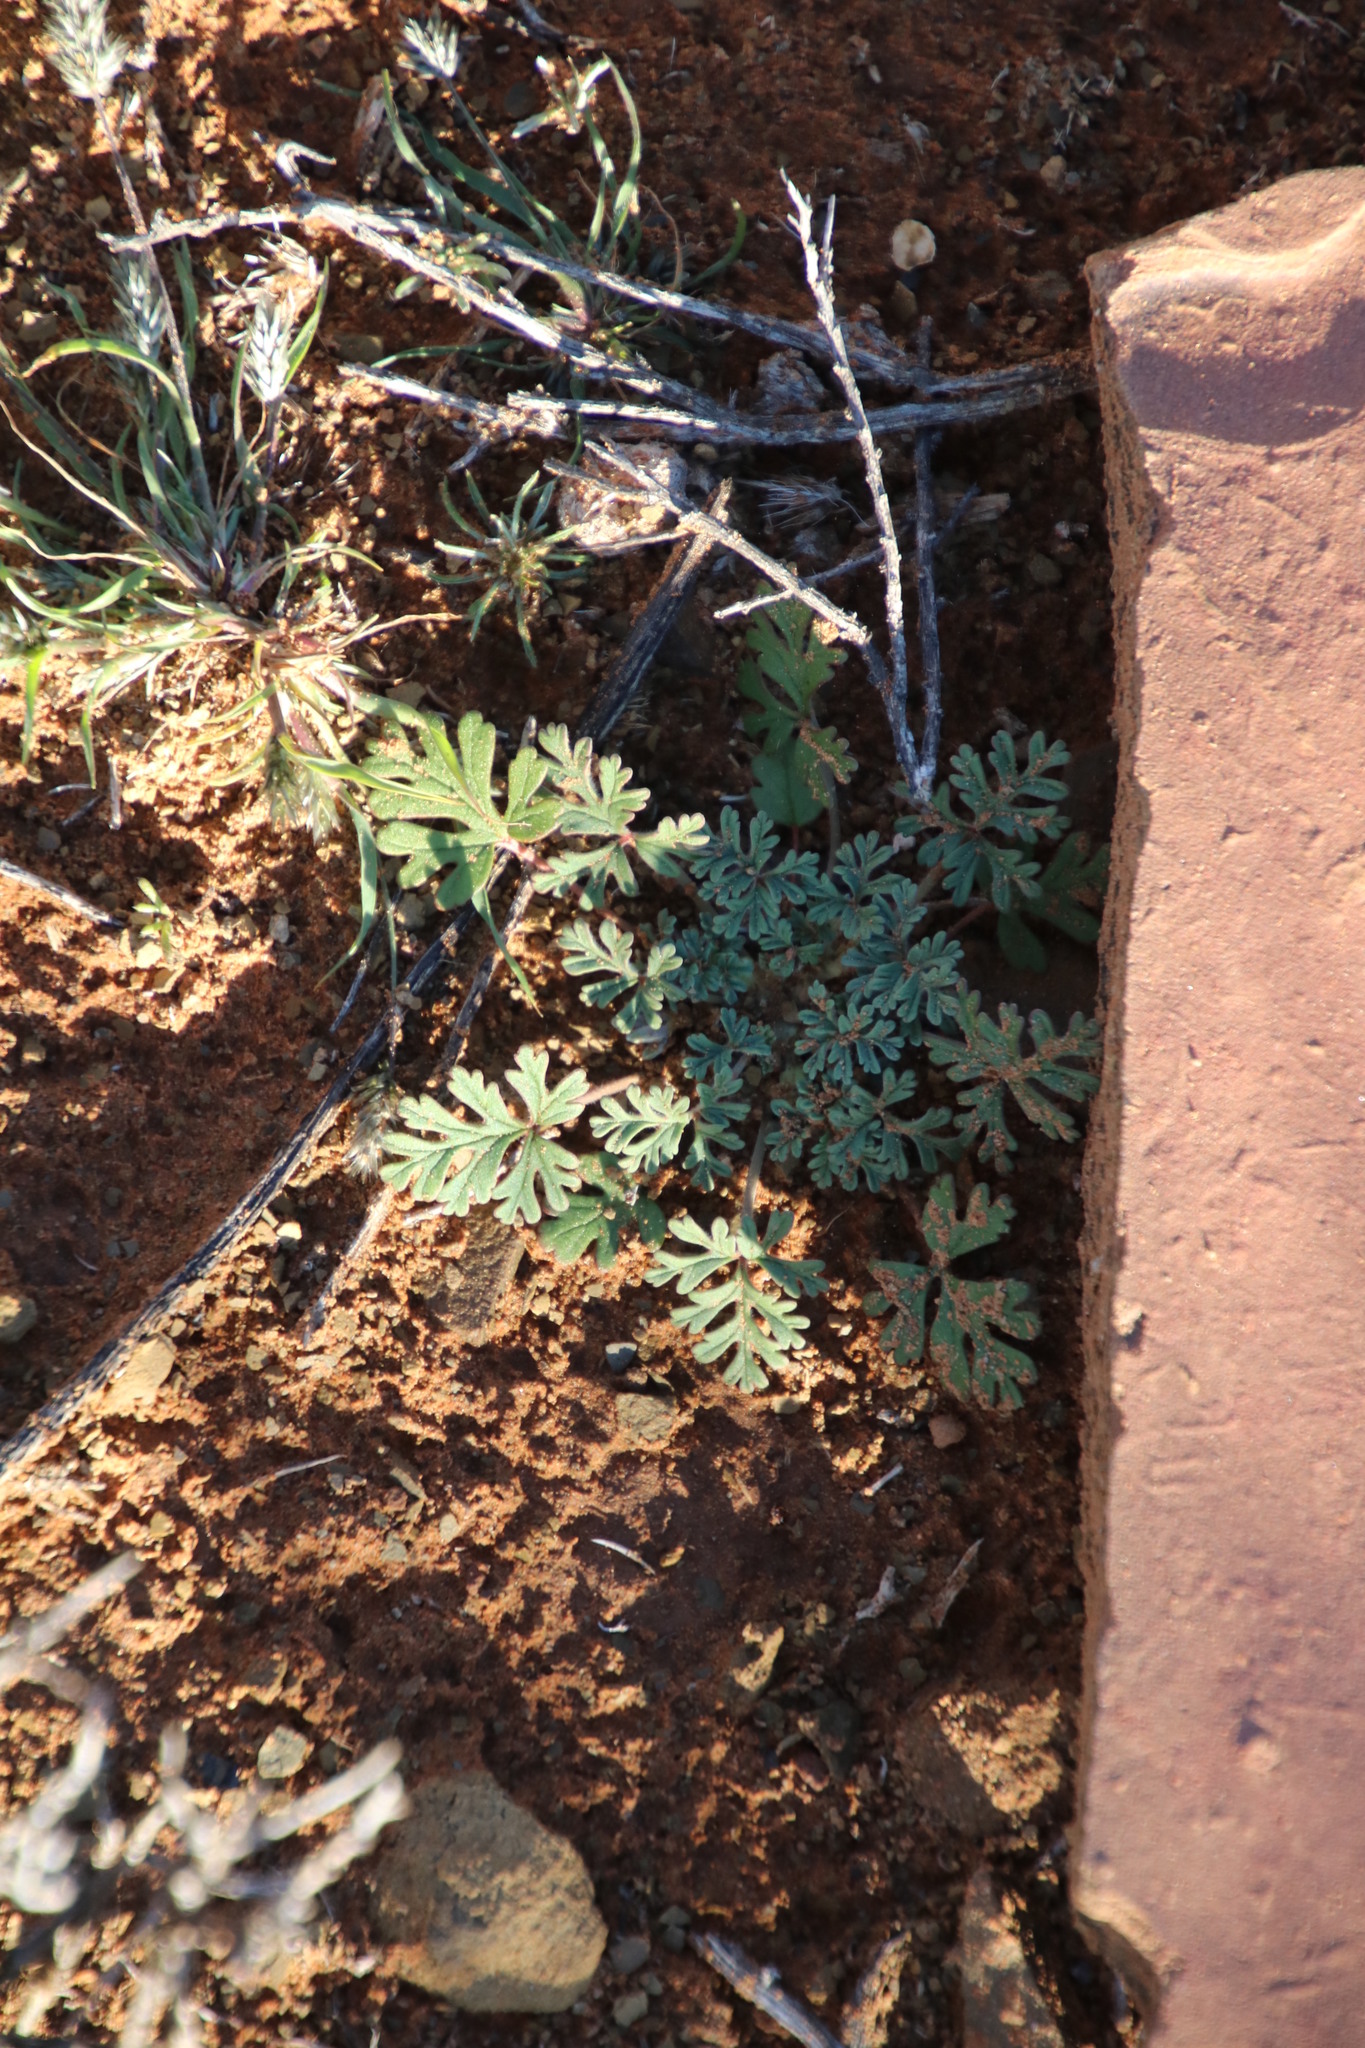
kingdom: Plantae
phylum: Tracheophyta
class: Magnoliopsida
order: Geraniales
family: Geraniaceae
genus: Pelargonium
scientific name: Pelargonium minimum
